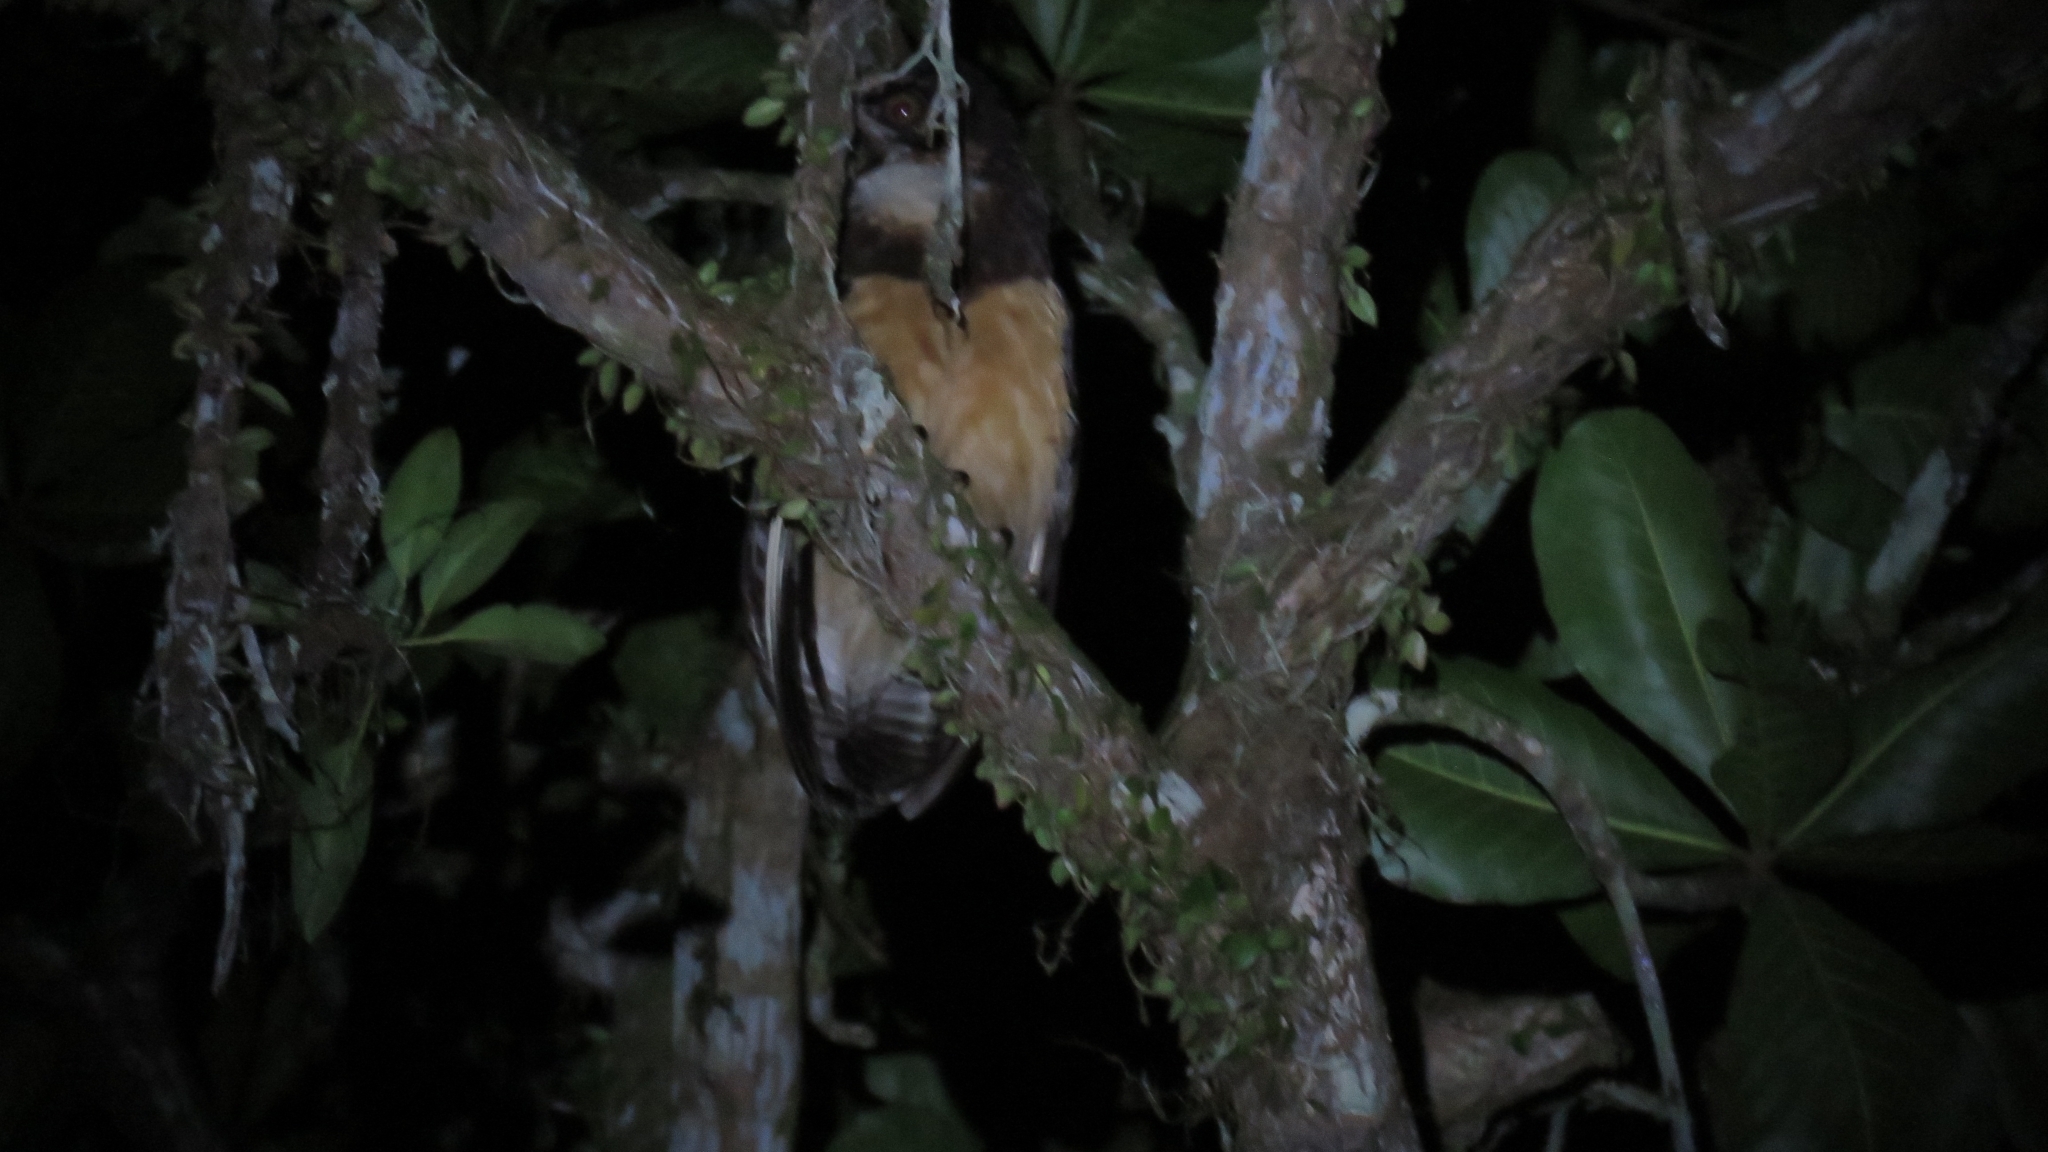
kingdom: Animalia
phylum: Chordata
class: Aves
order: Strigiformes
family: Strigidae
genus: Pulsatrix
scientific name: Pulsatrix perspicillata
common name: Spectacled owl
